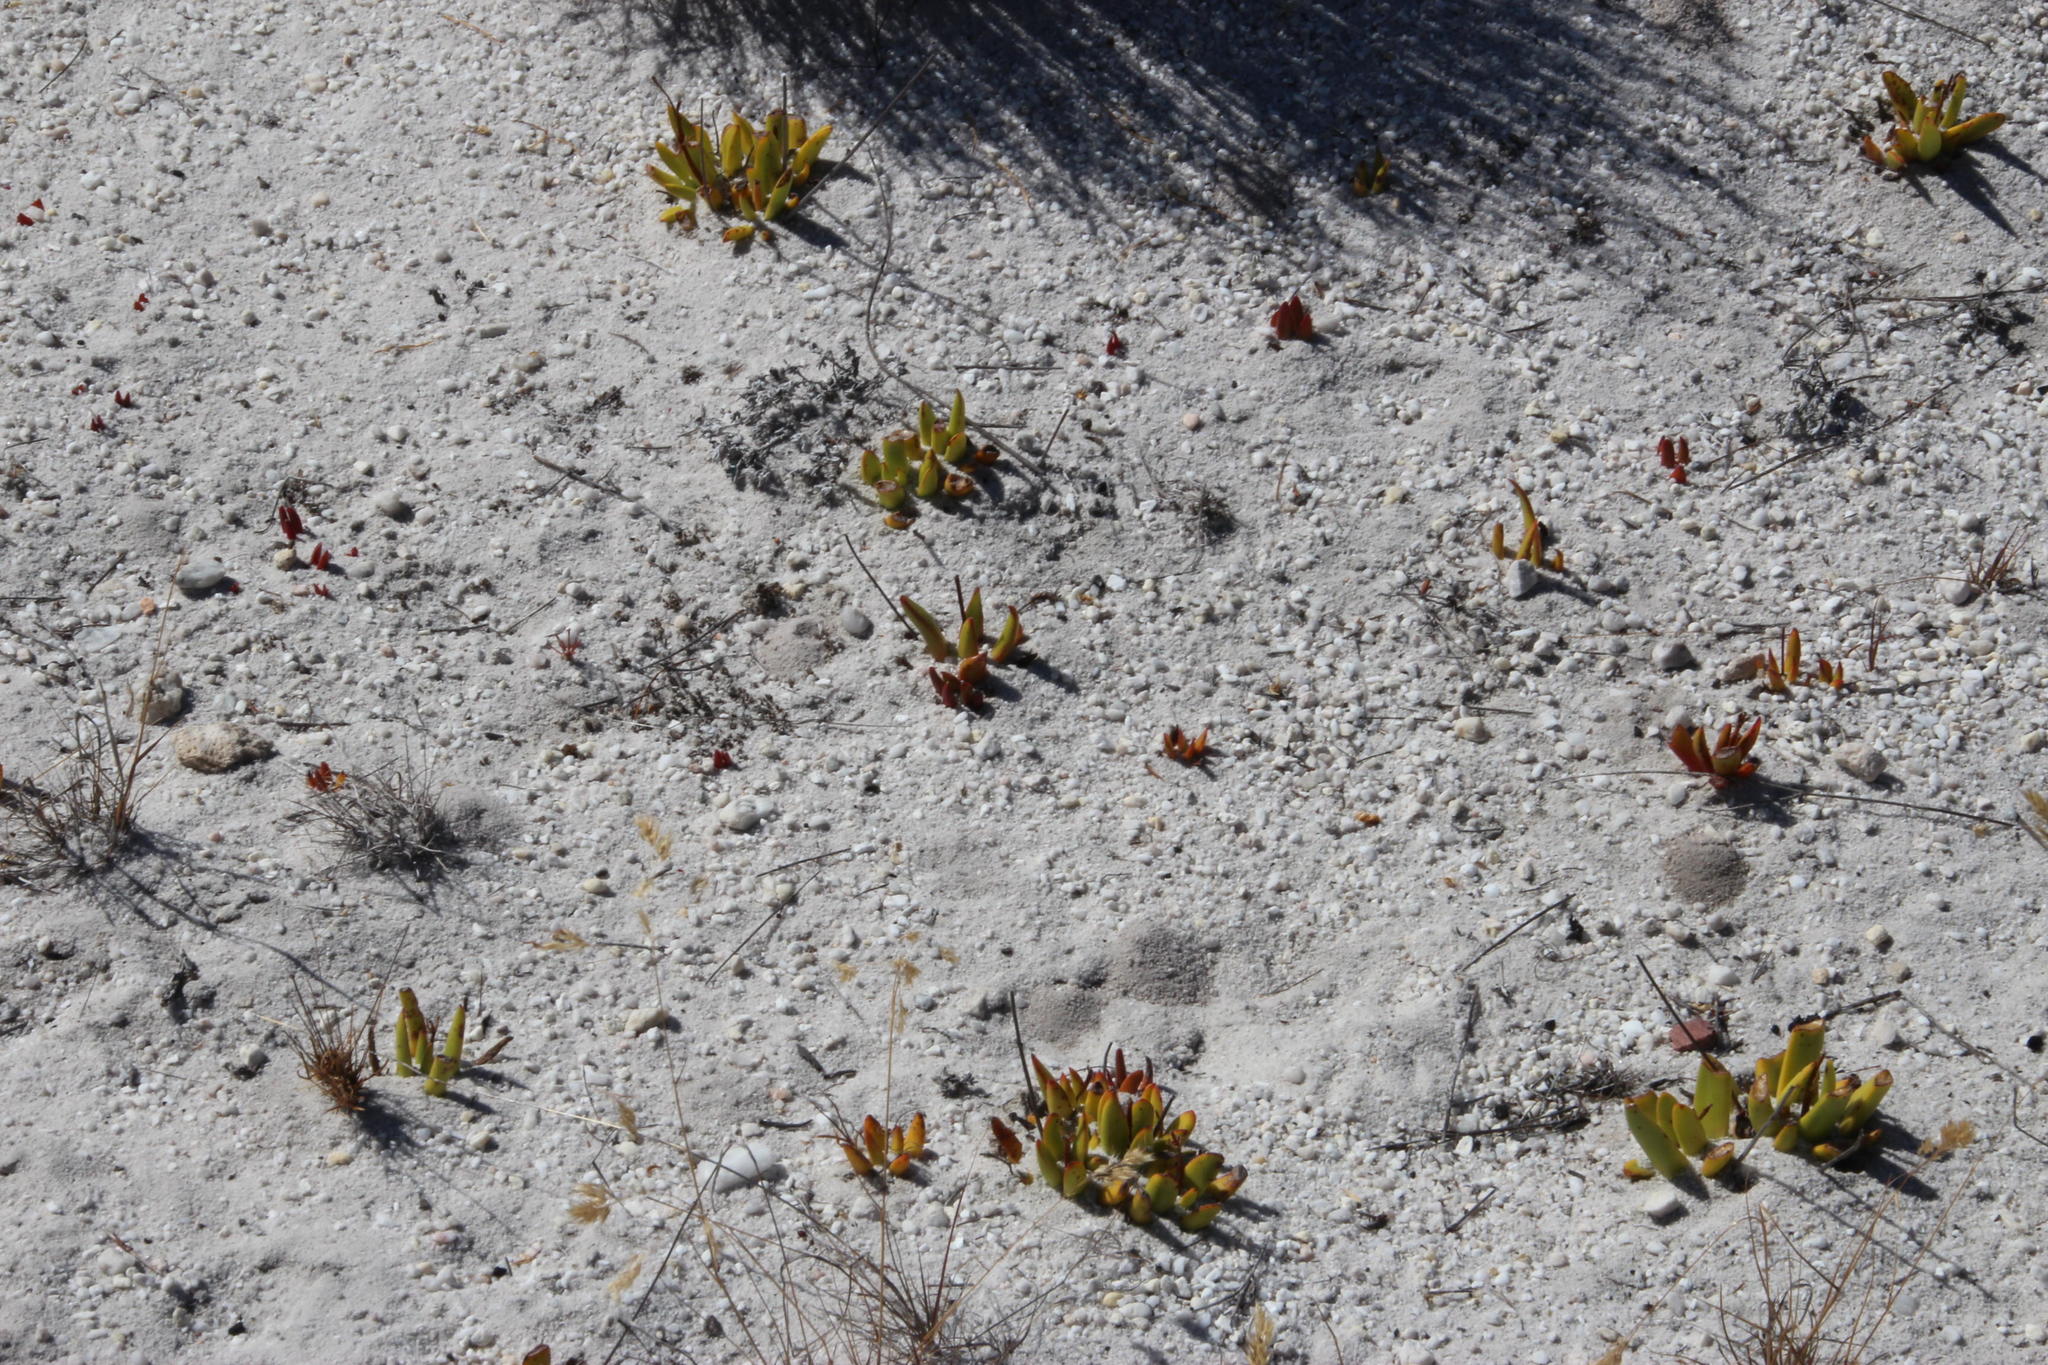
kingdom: Plantae
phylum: Tracheophyta
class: Magnoliopsida
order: Saxifragales
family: Crassulaceae
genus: Crassula
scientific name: Crassula nudicaulis
